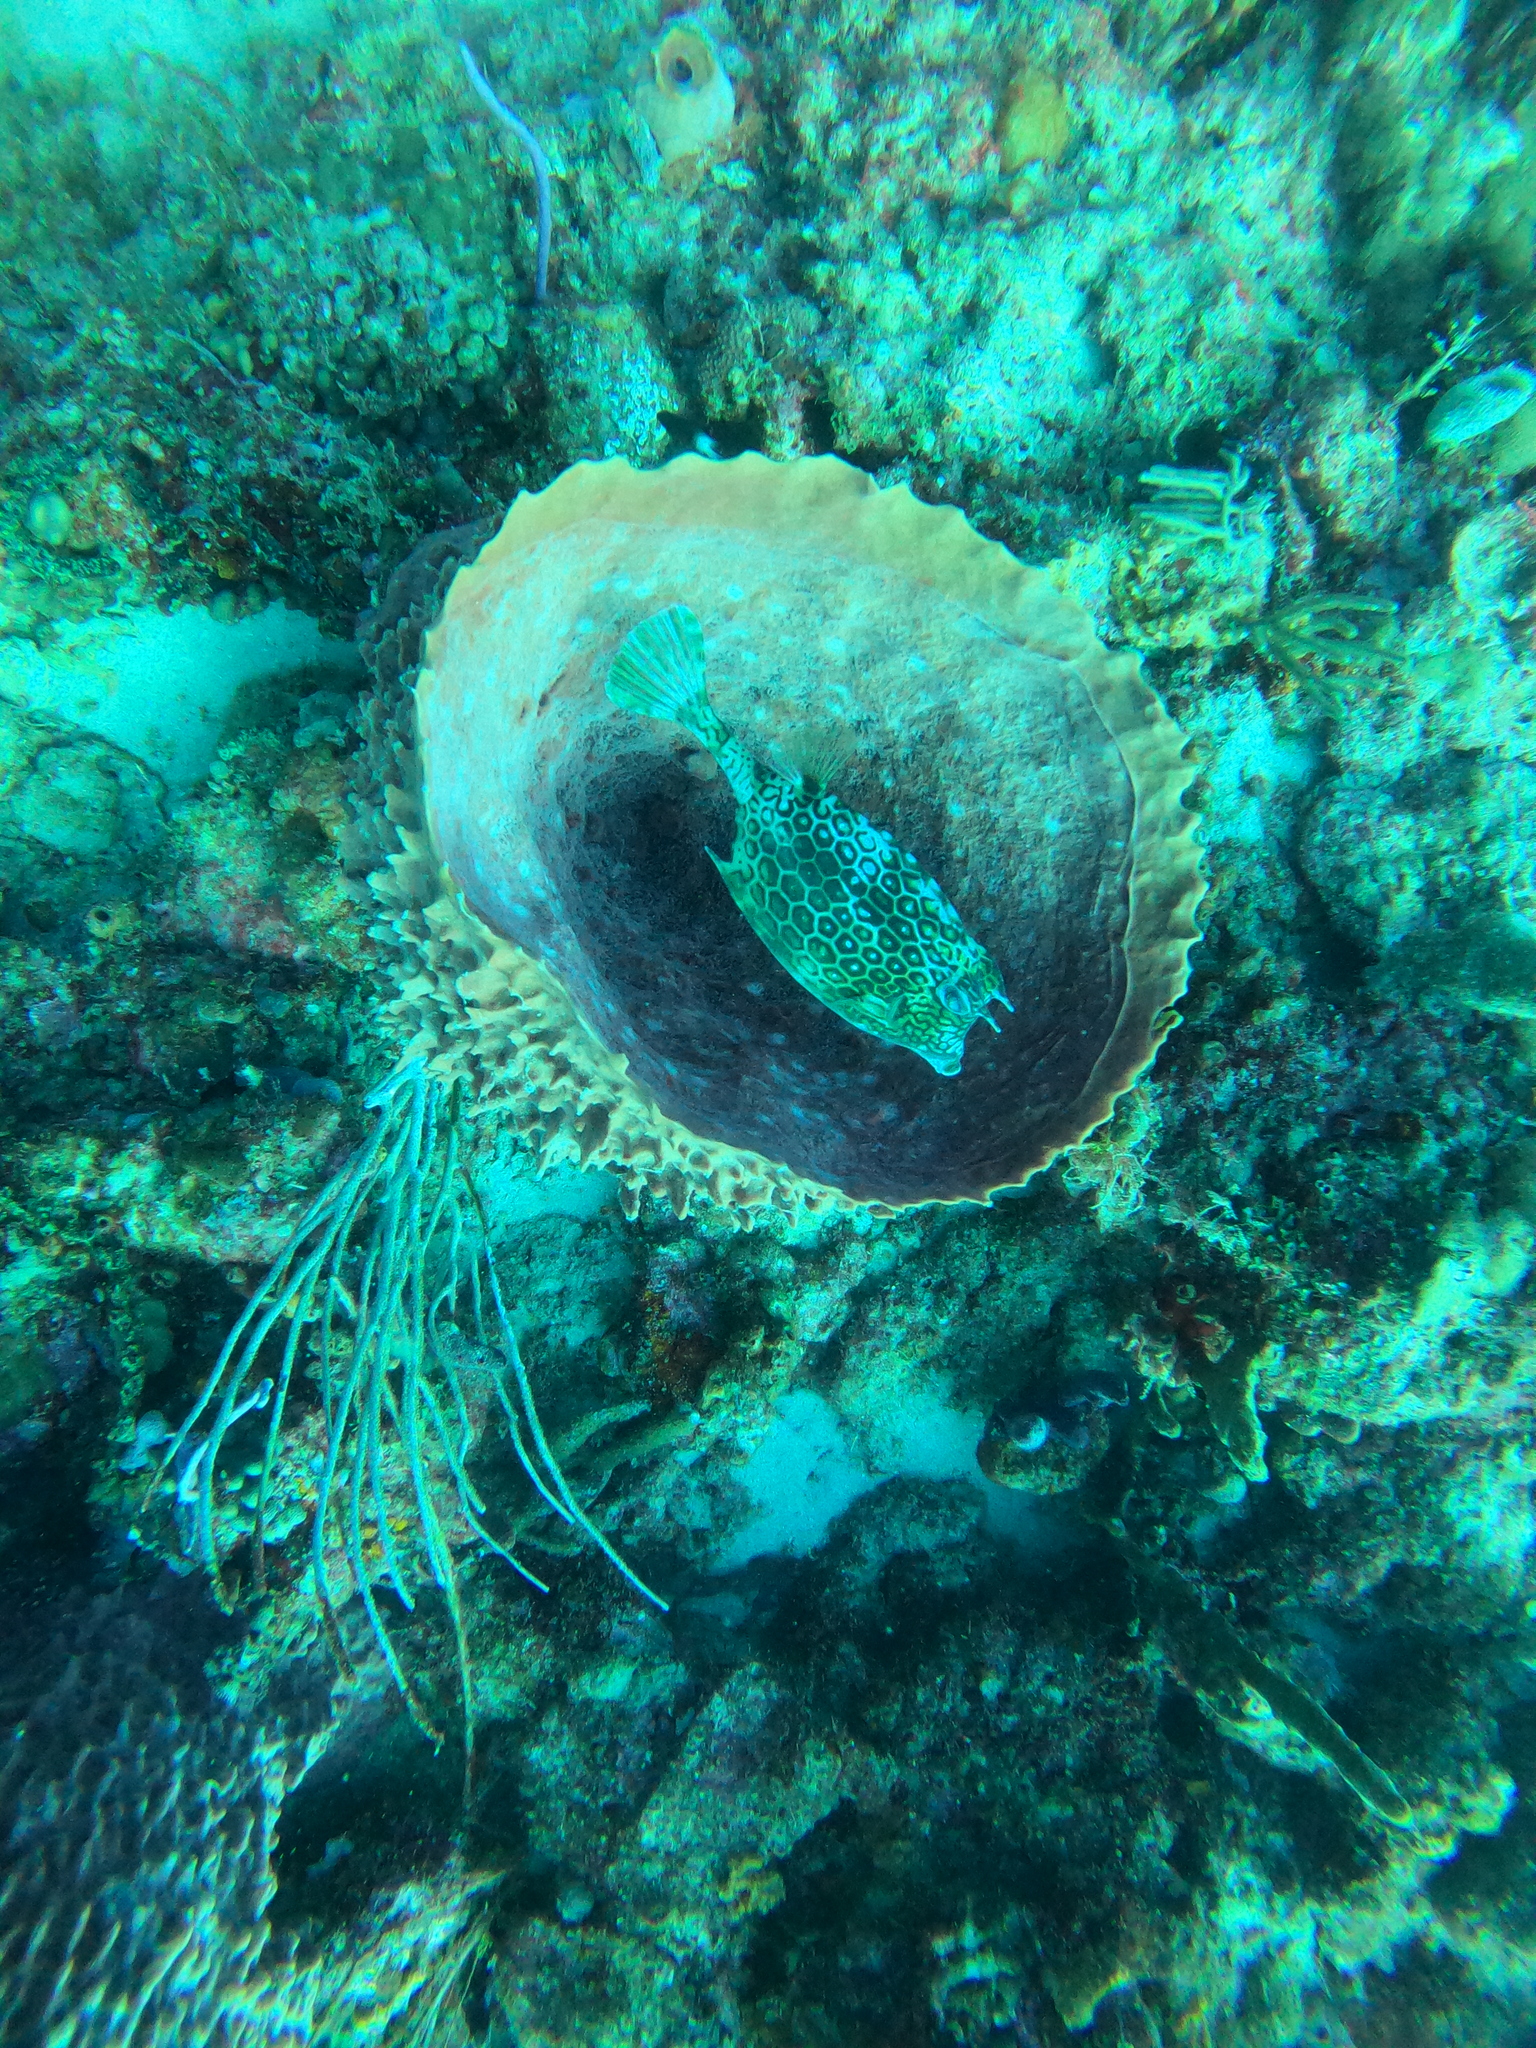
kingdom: Animalia
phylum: Porifera
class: Demospongiae
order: Haplosclerida
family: Petrosiidae
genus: Xestospongia
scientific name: Xestospongia muta
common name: Giant barrel sponge
